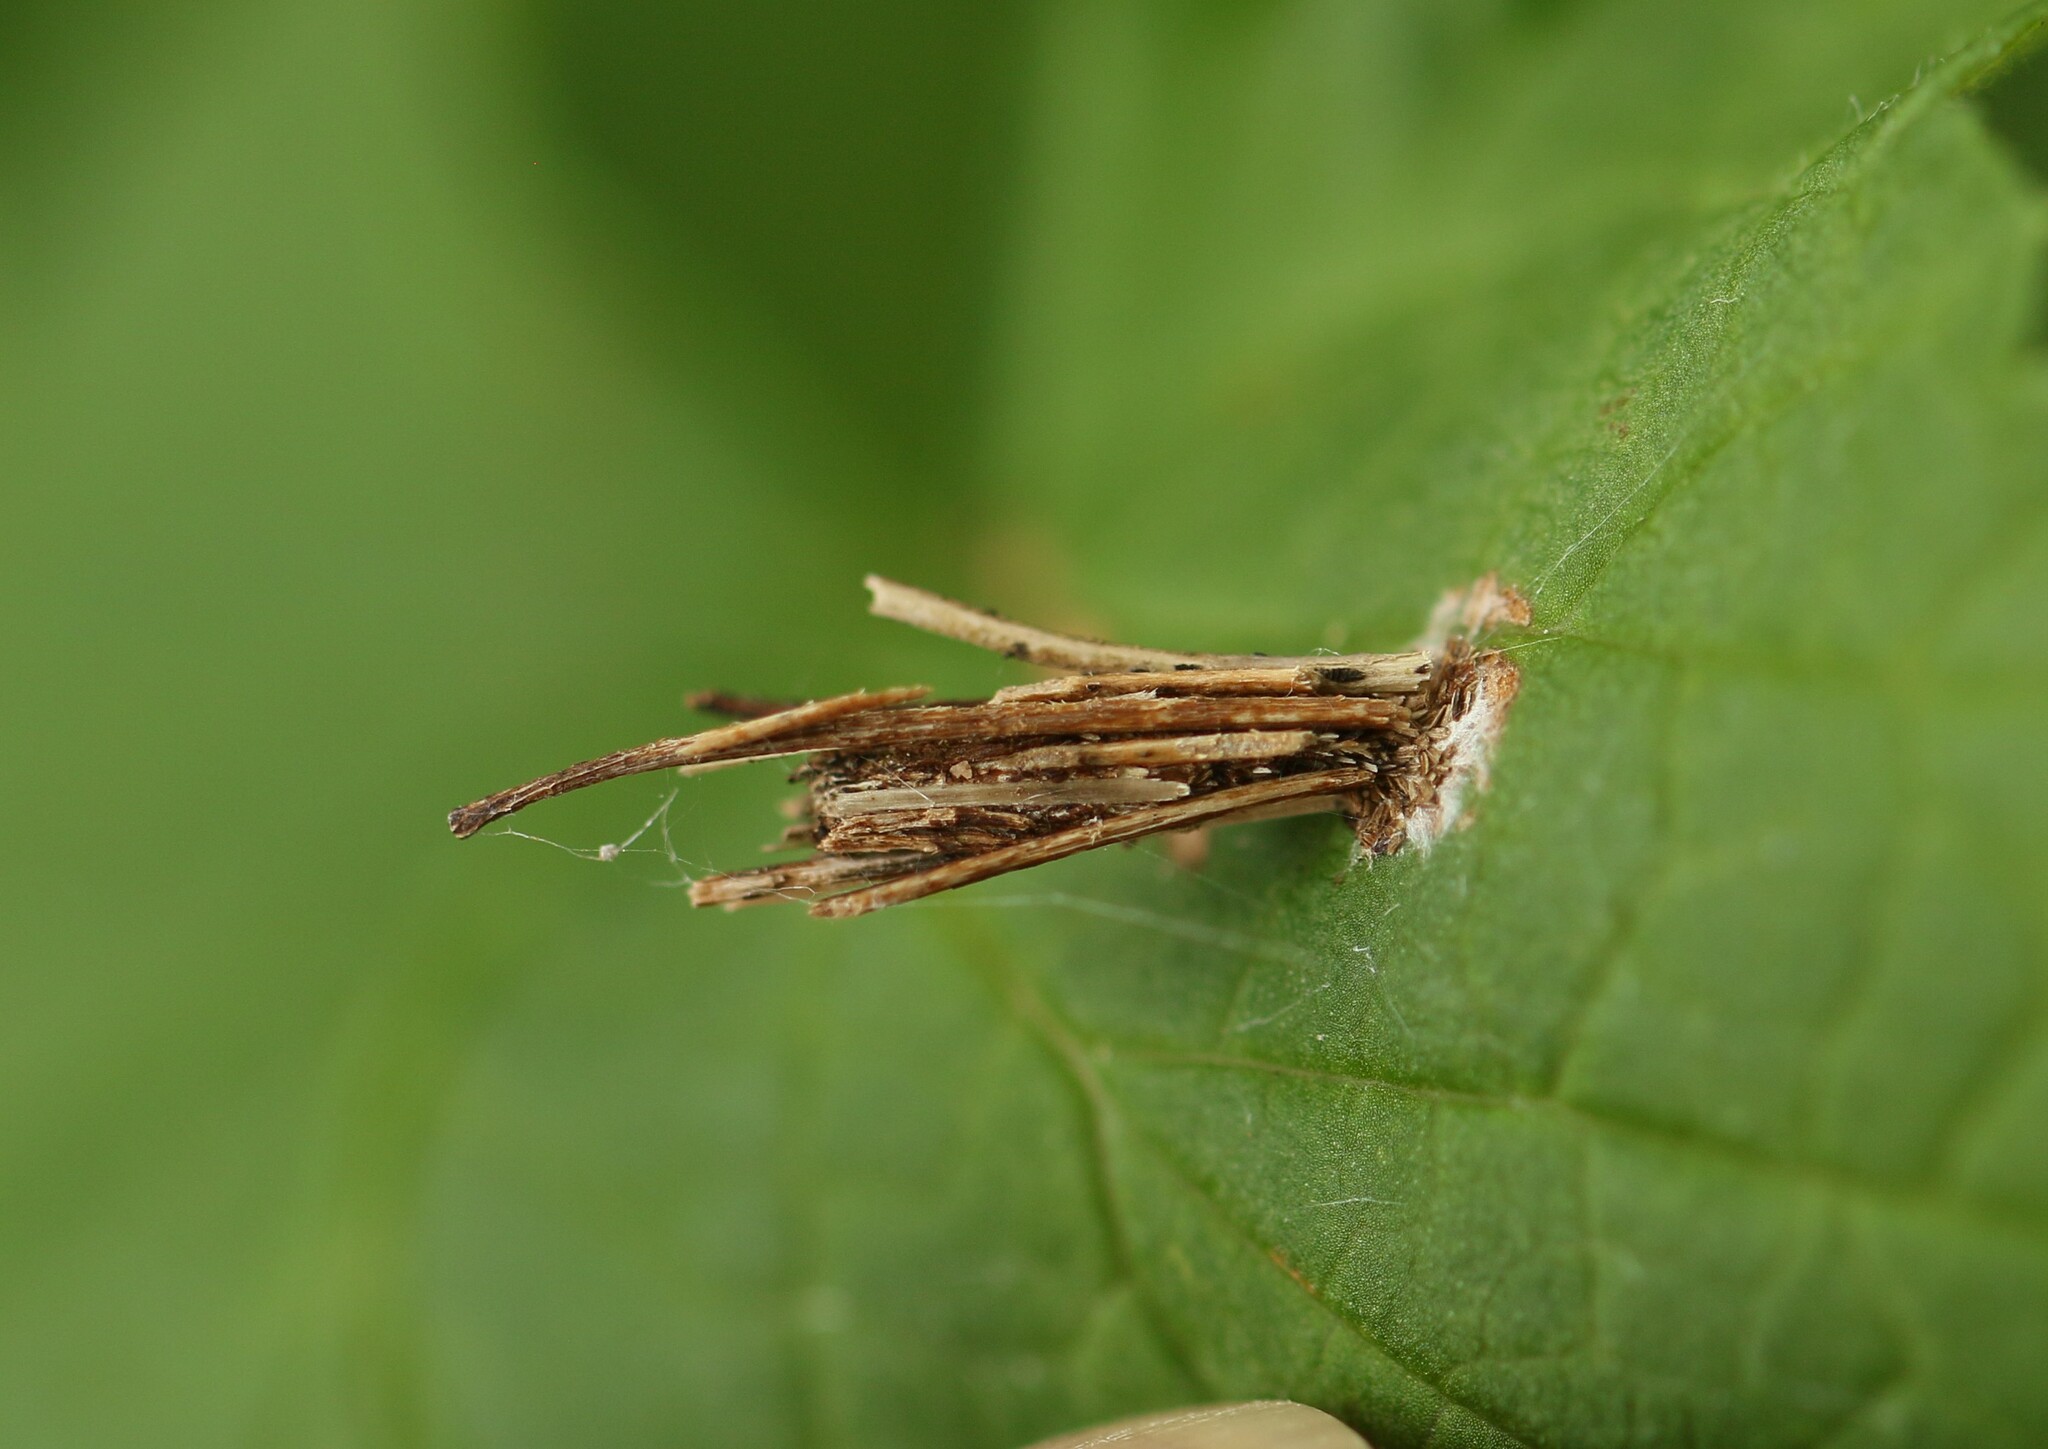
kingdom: Animalia
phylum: Arthropoda
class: Insecta
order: Lepidoptera
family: Psychidae
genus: Psyche
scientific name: Psyche casta
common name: Common sweep
